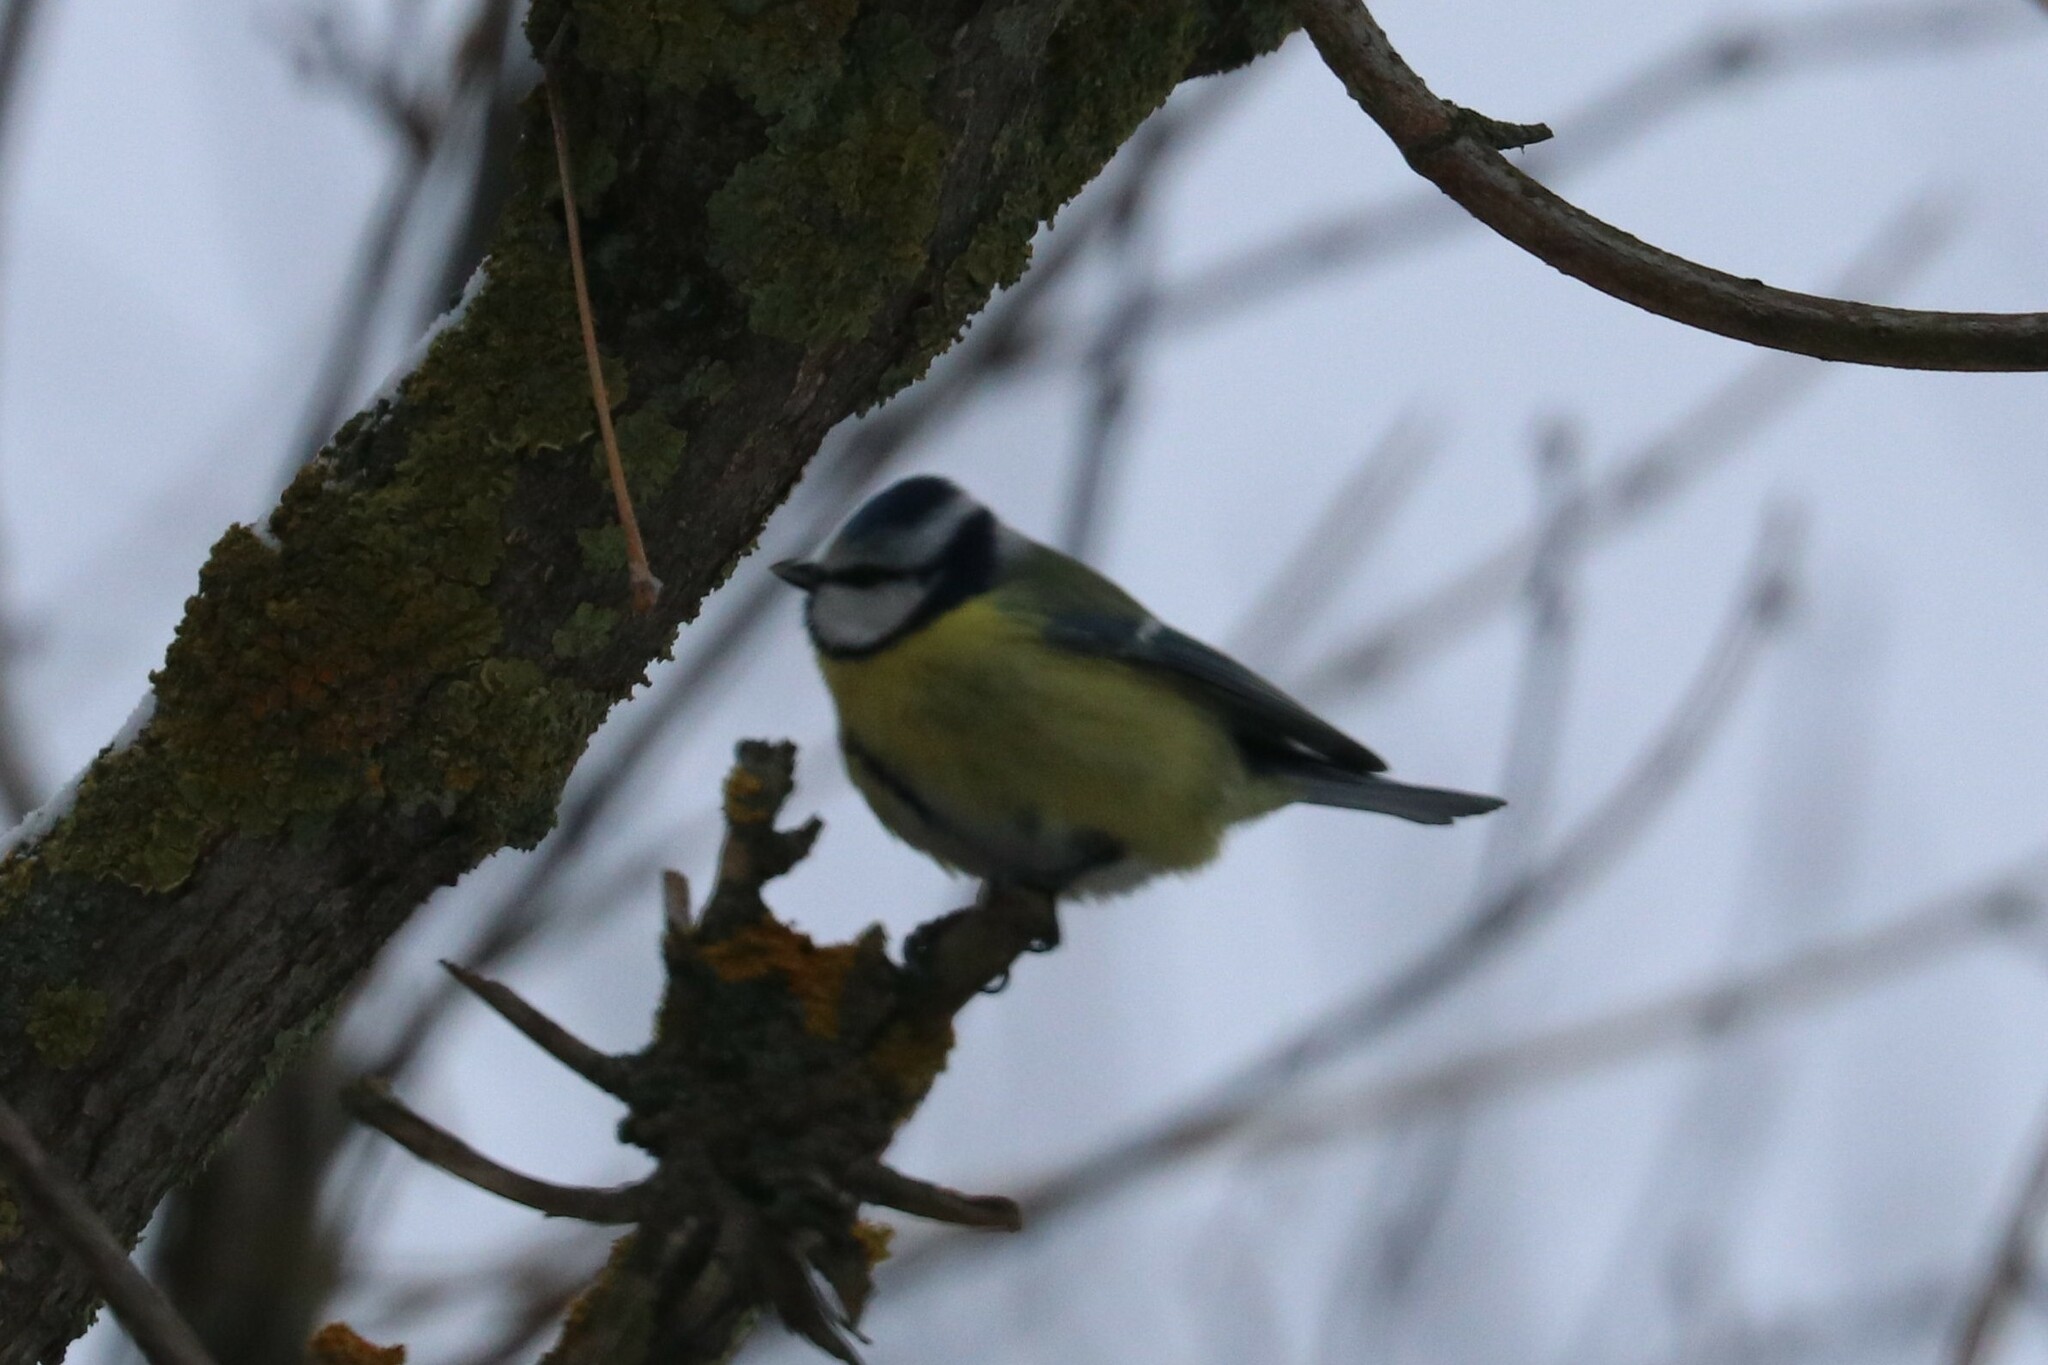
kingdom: Animalia
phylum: Chordata
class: Aves
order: Passeriformes
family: Paridae
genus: Cyanistes
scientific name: Cyanistes caeruleus
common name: Eurasian blue tit
